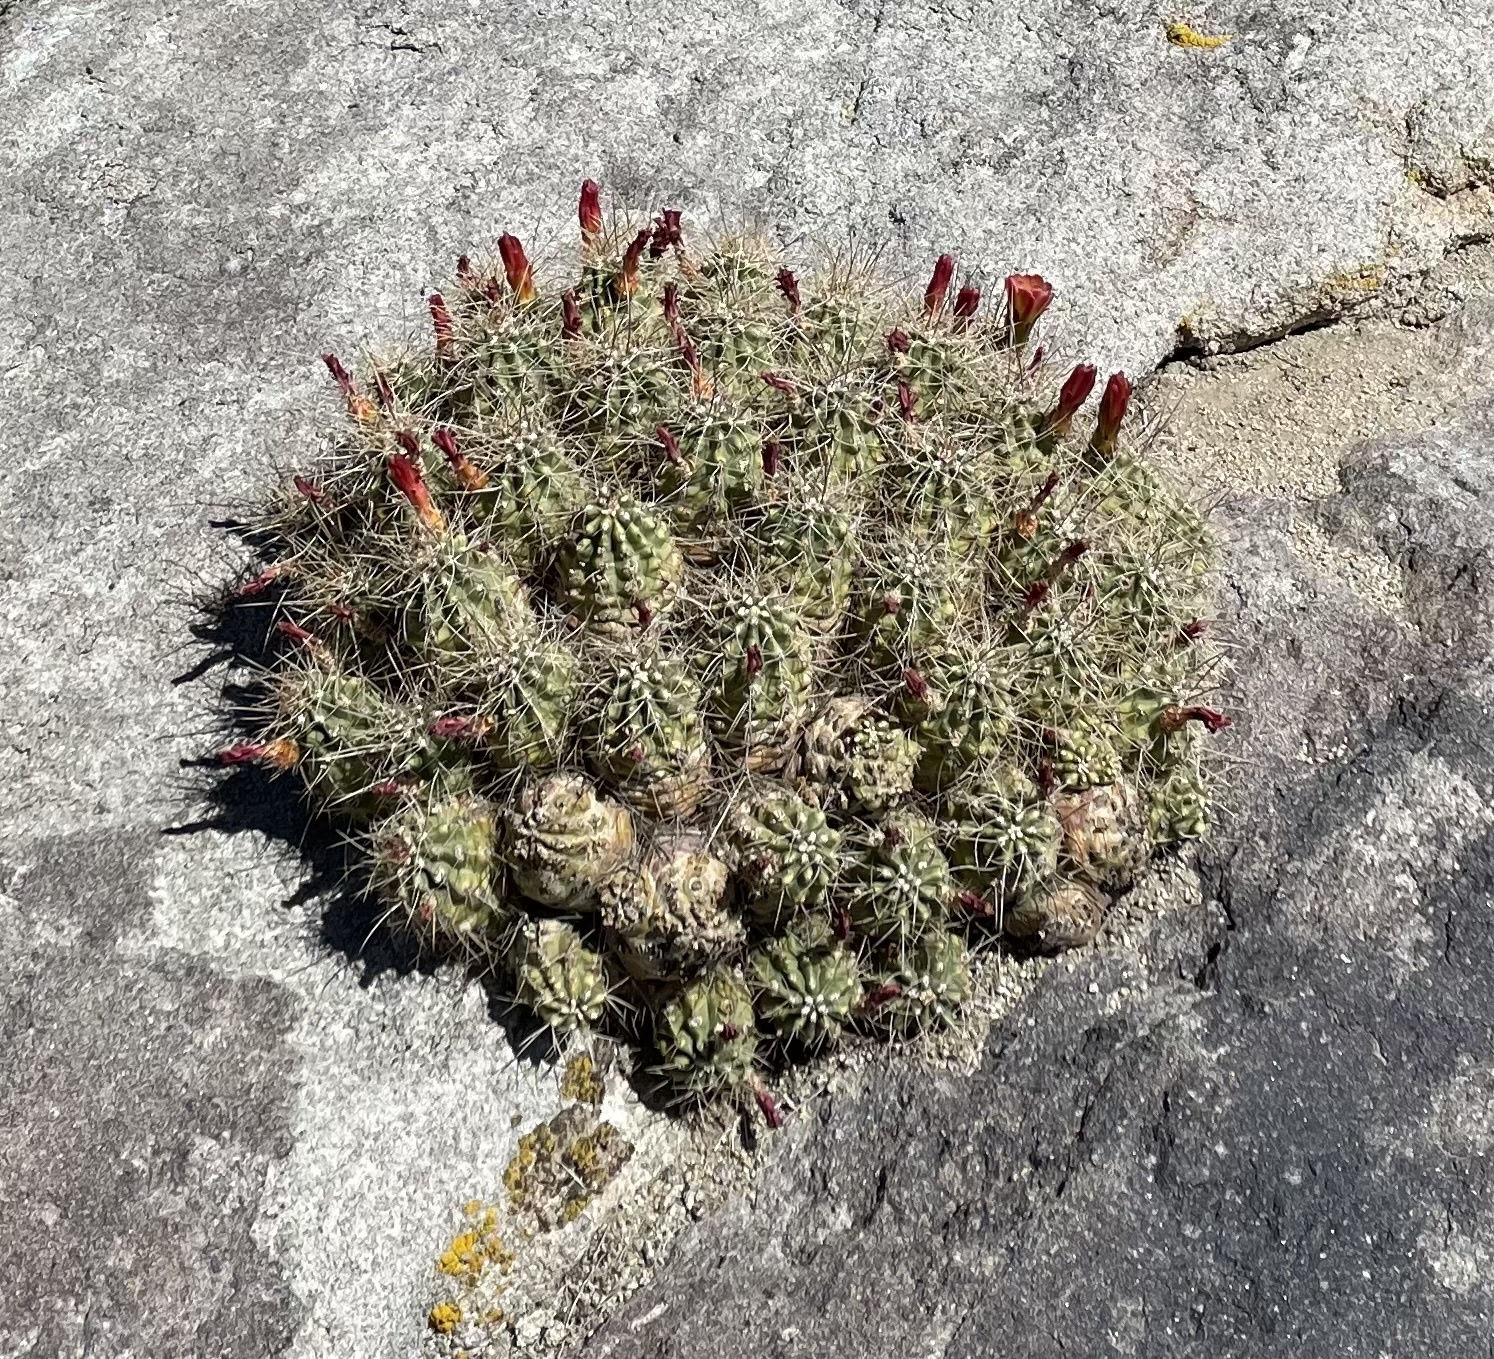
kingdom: Plantae
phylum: Tracheophyta
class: Magnoliopsida
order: Caryophyllales
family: Cactaceae
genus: Echinocereus
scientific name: Echinocereus triglochidiatus
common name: Claretcup hedgehog
